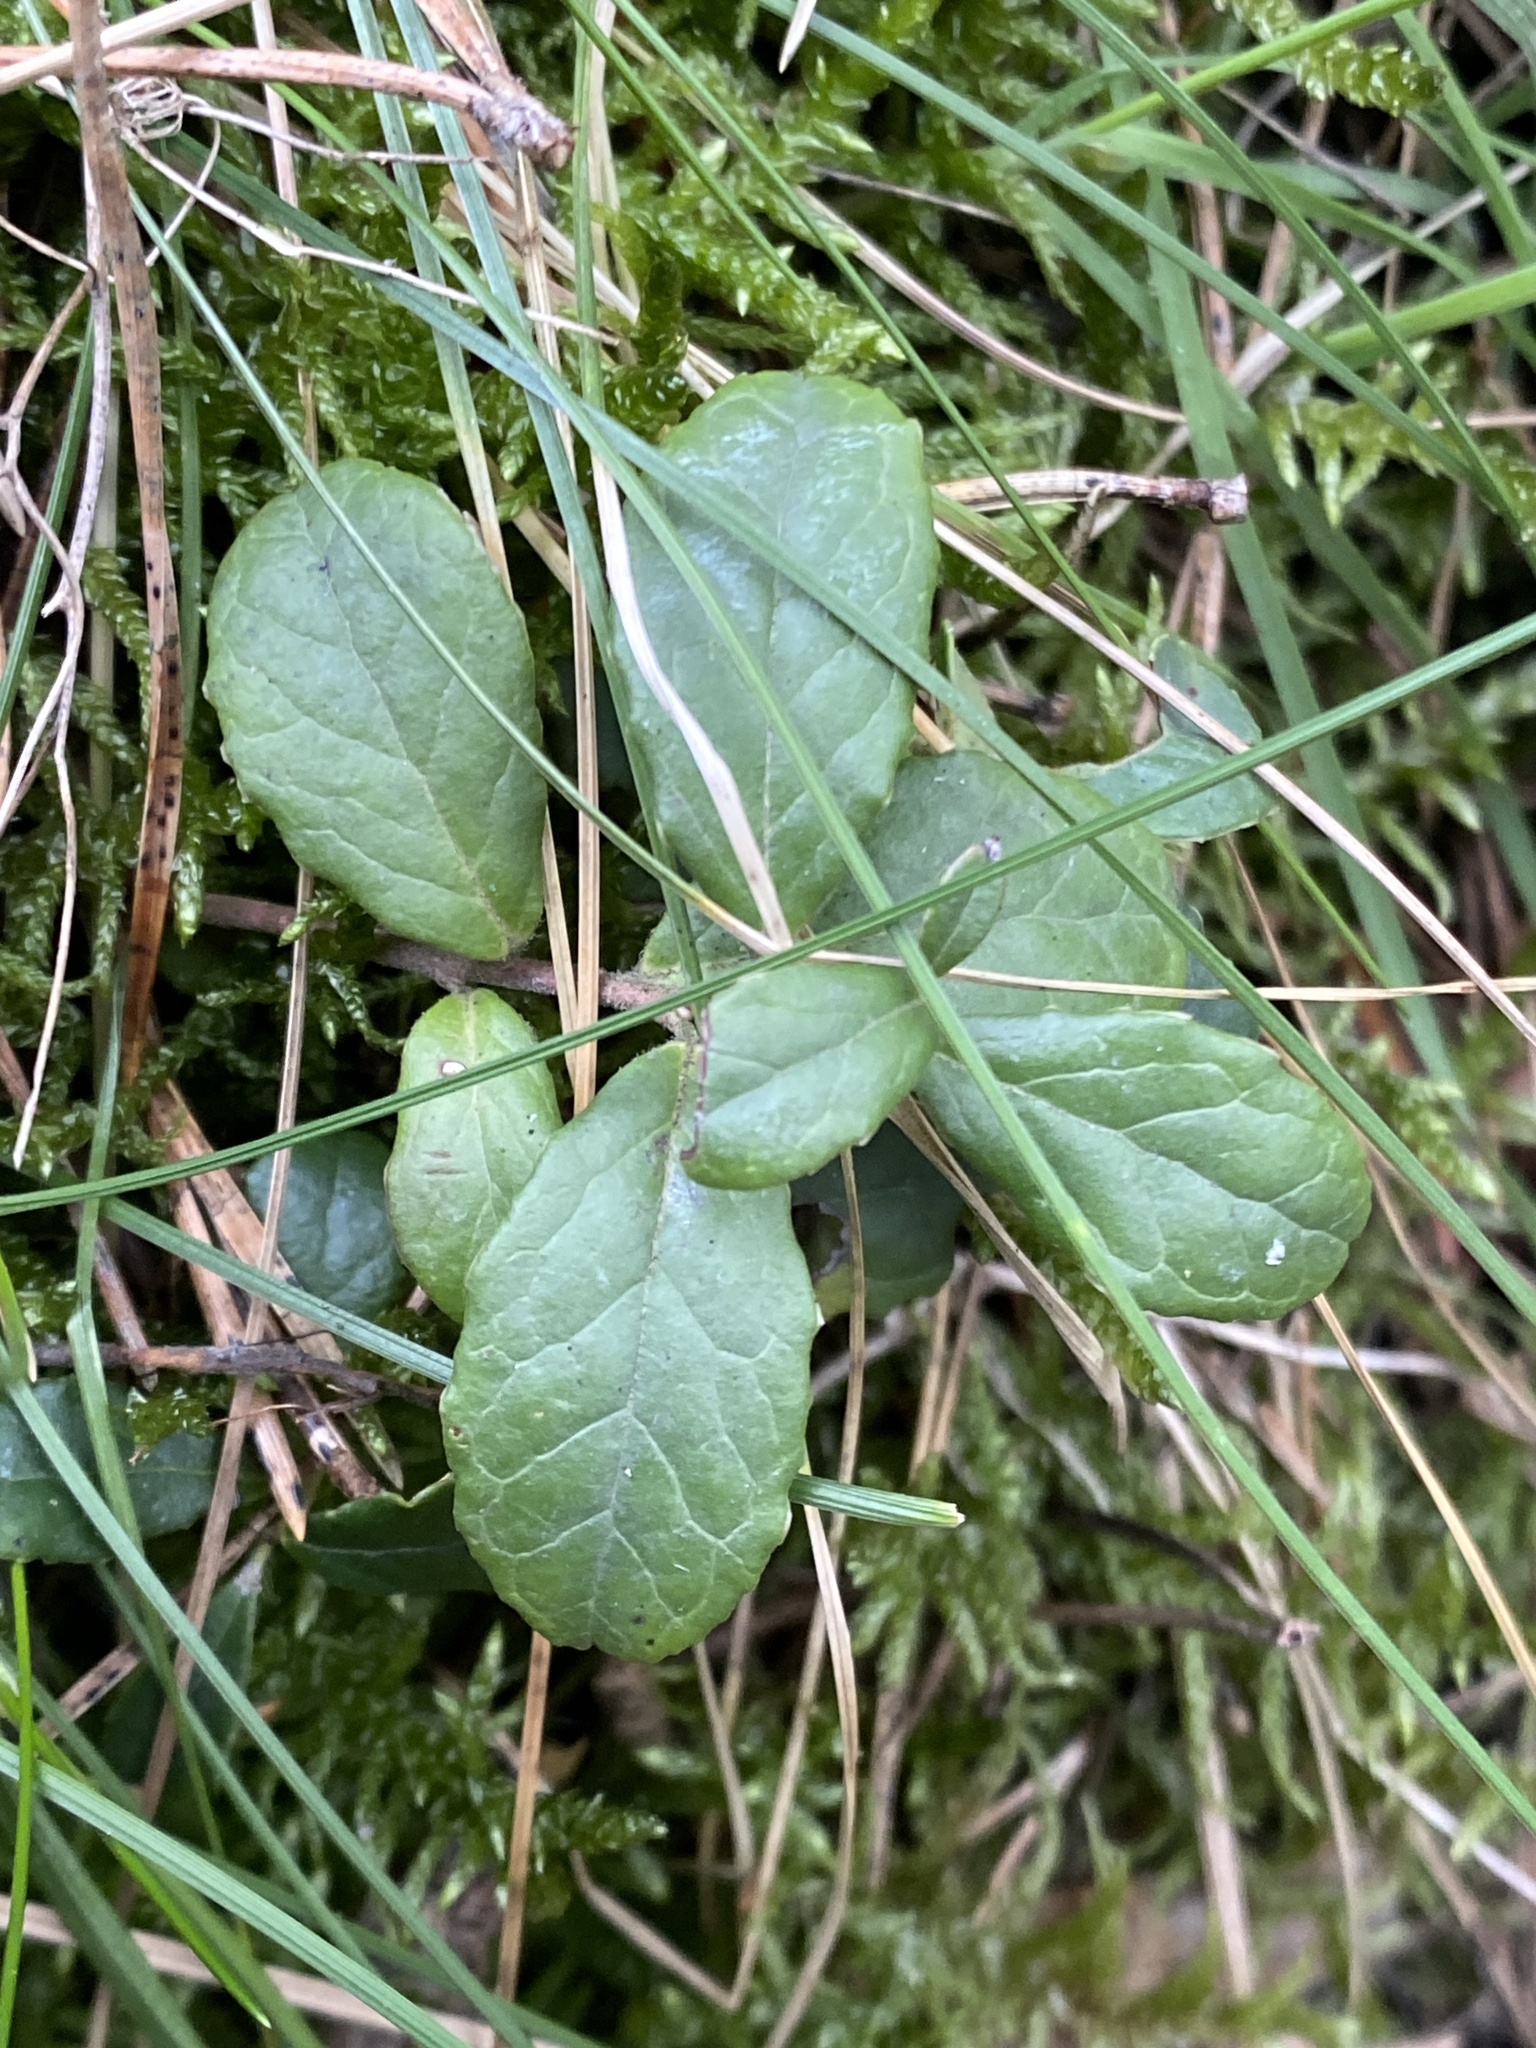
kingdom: Plantae
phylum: Tracheophyta
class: Magnoliopsida
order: Ericales
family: Ericaceae
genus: Vaccinium
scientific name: Vaccinium vitis-idaea
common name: Cowberry
